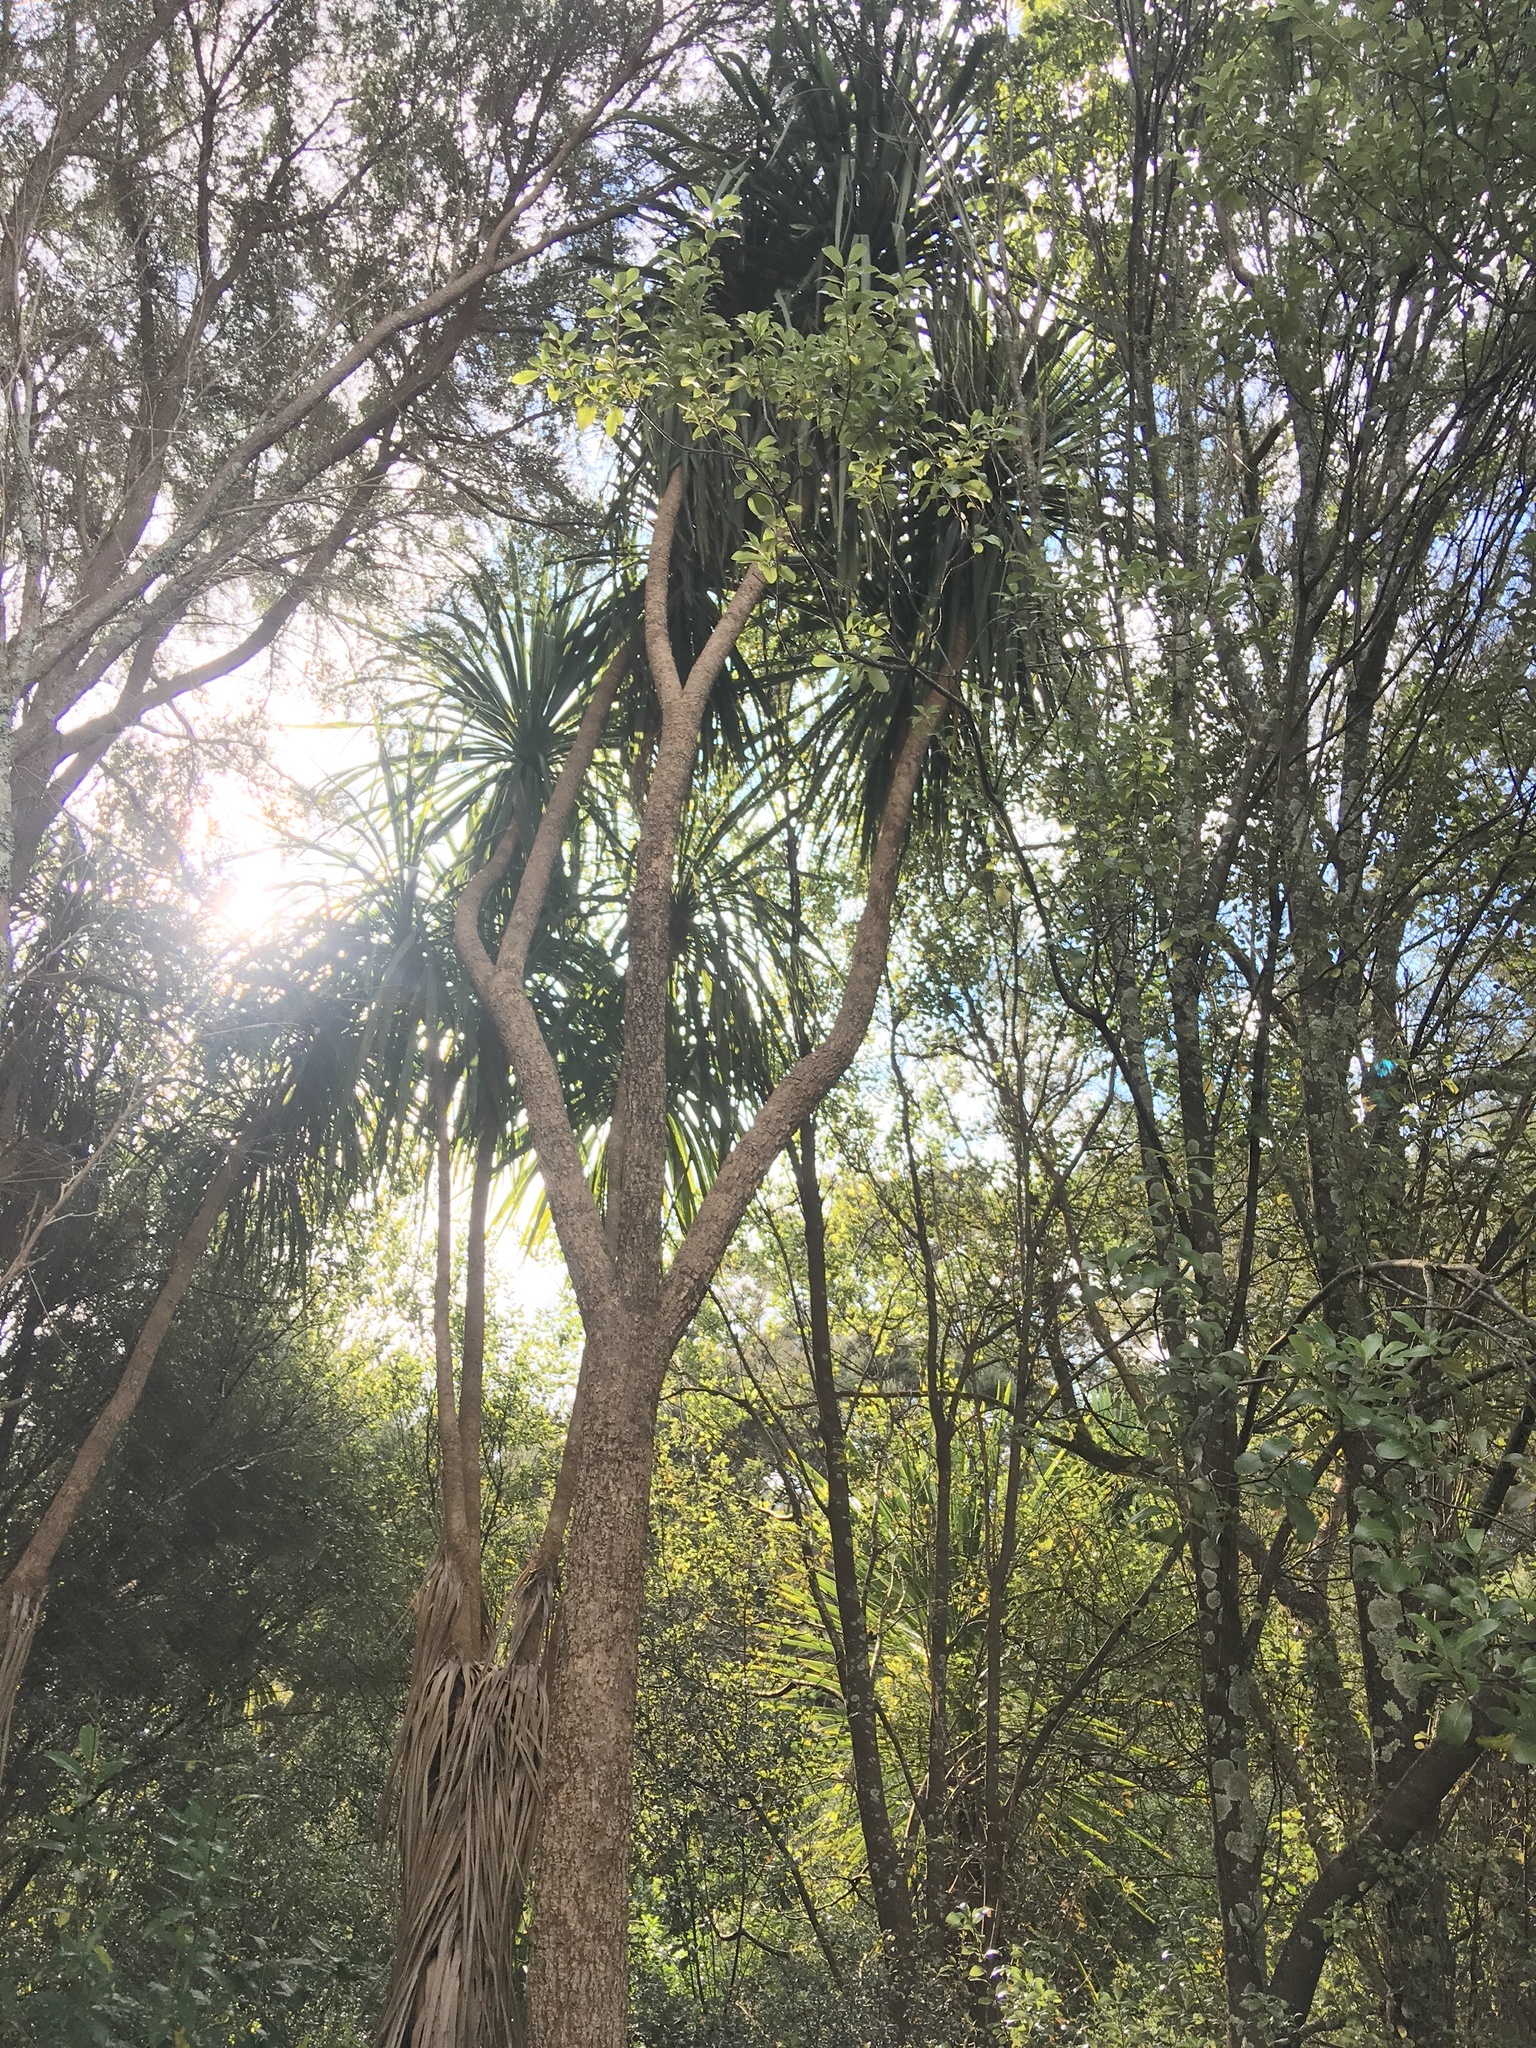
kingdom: Plantae
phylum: Tracheophyta
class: Liliopsida
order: Asparagales
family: Asparagaceae
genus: Cordyline
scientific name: Cordyline australis
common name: Cabbage-palm
